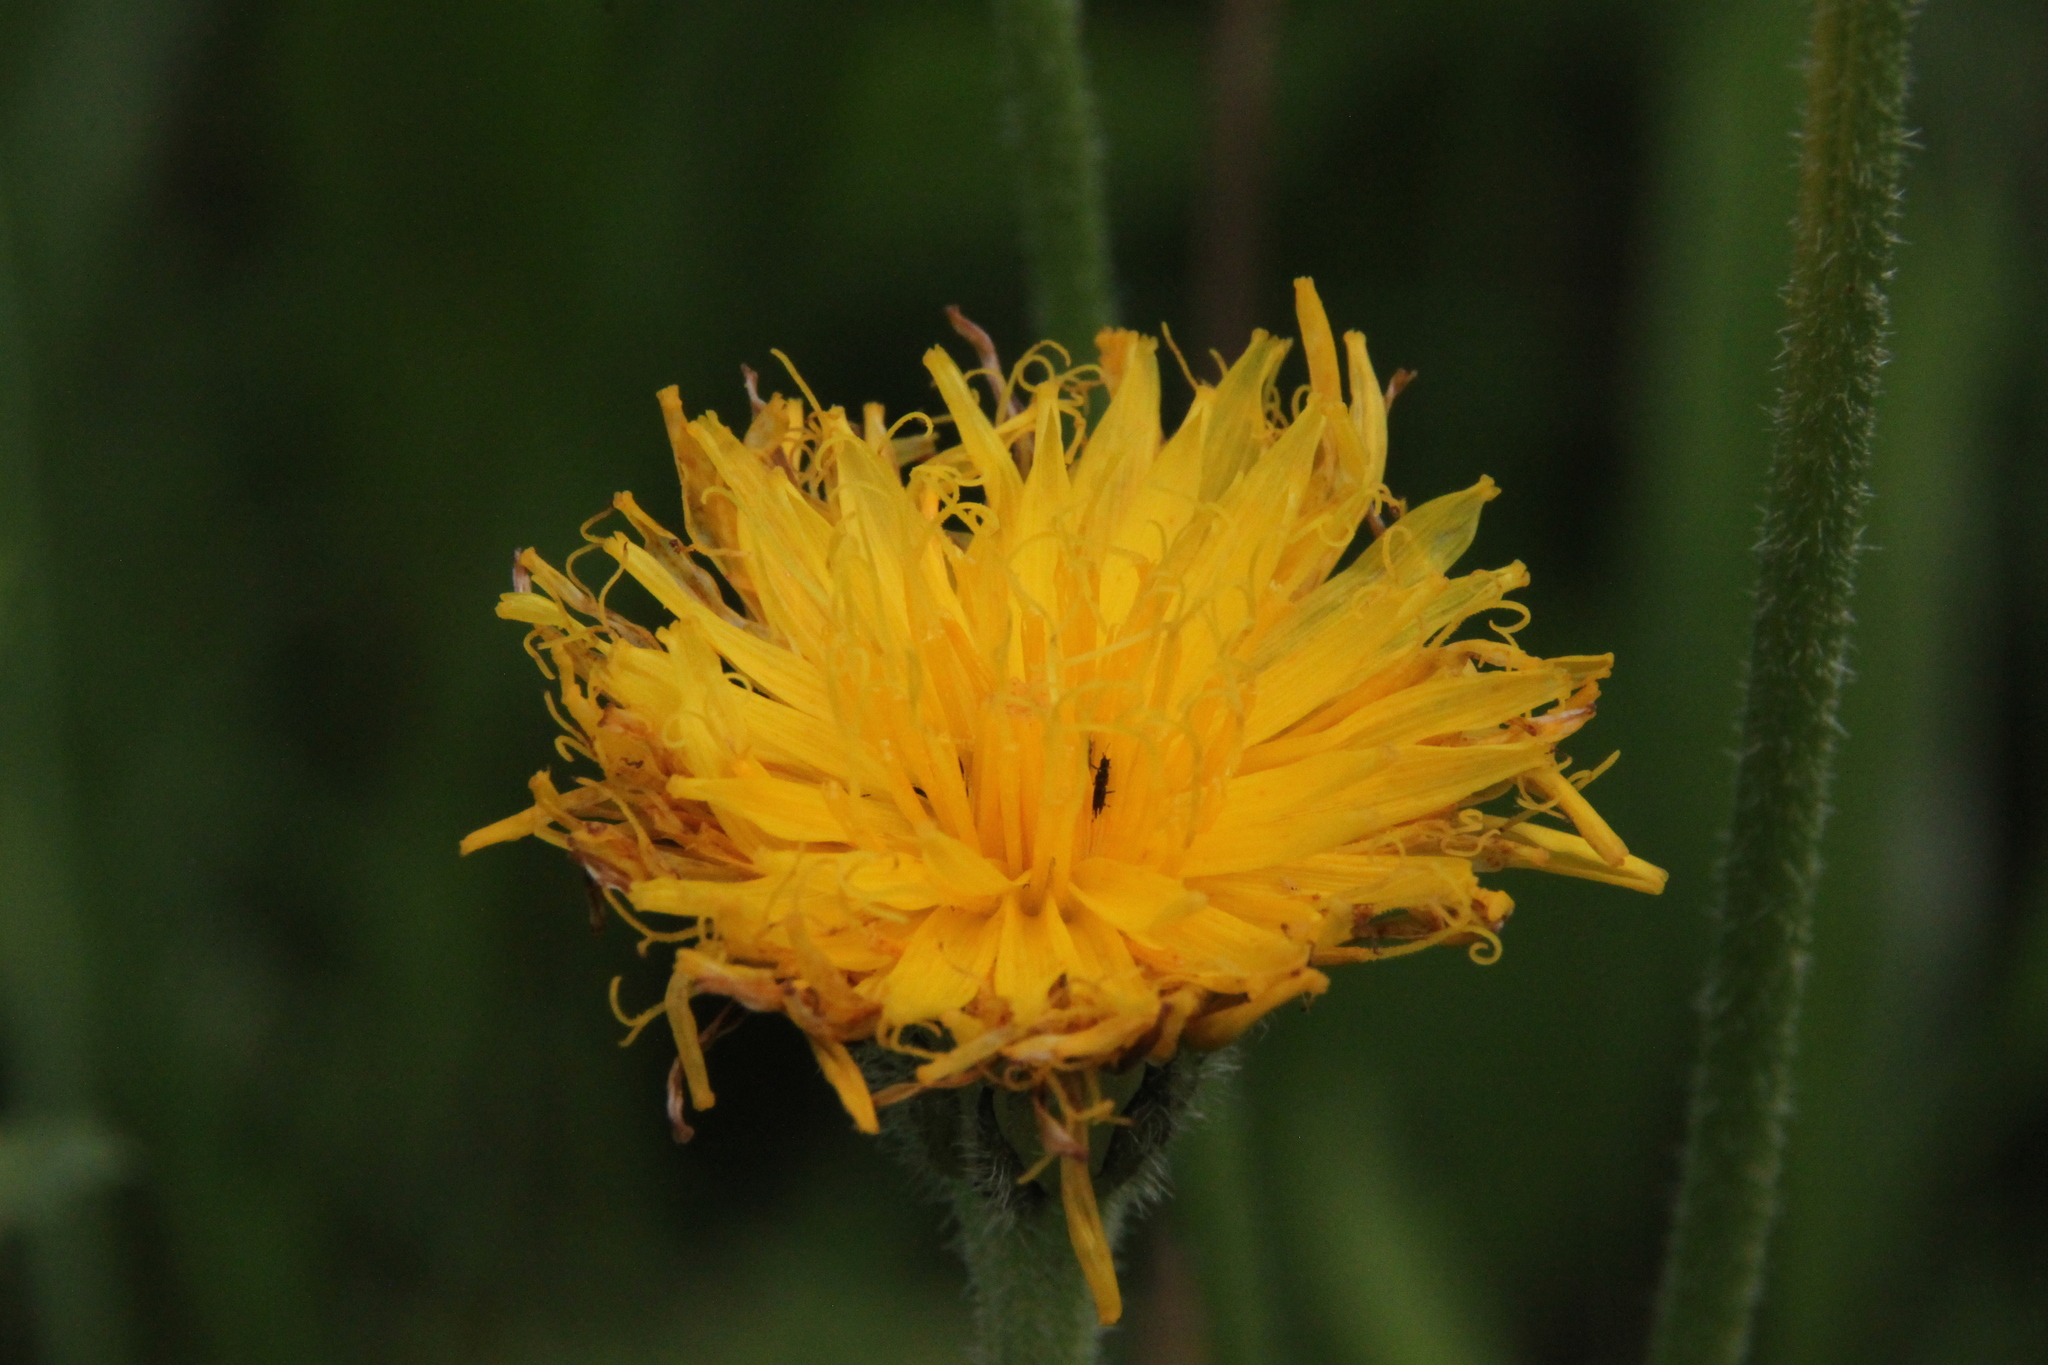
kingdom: Plantae
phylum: Tracheophyta
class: Magnoliopsida
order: Asterales
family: Asteraceae
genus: Leontodon
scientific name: Leontodon hispidus
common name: Rough hawkbit
